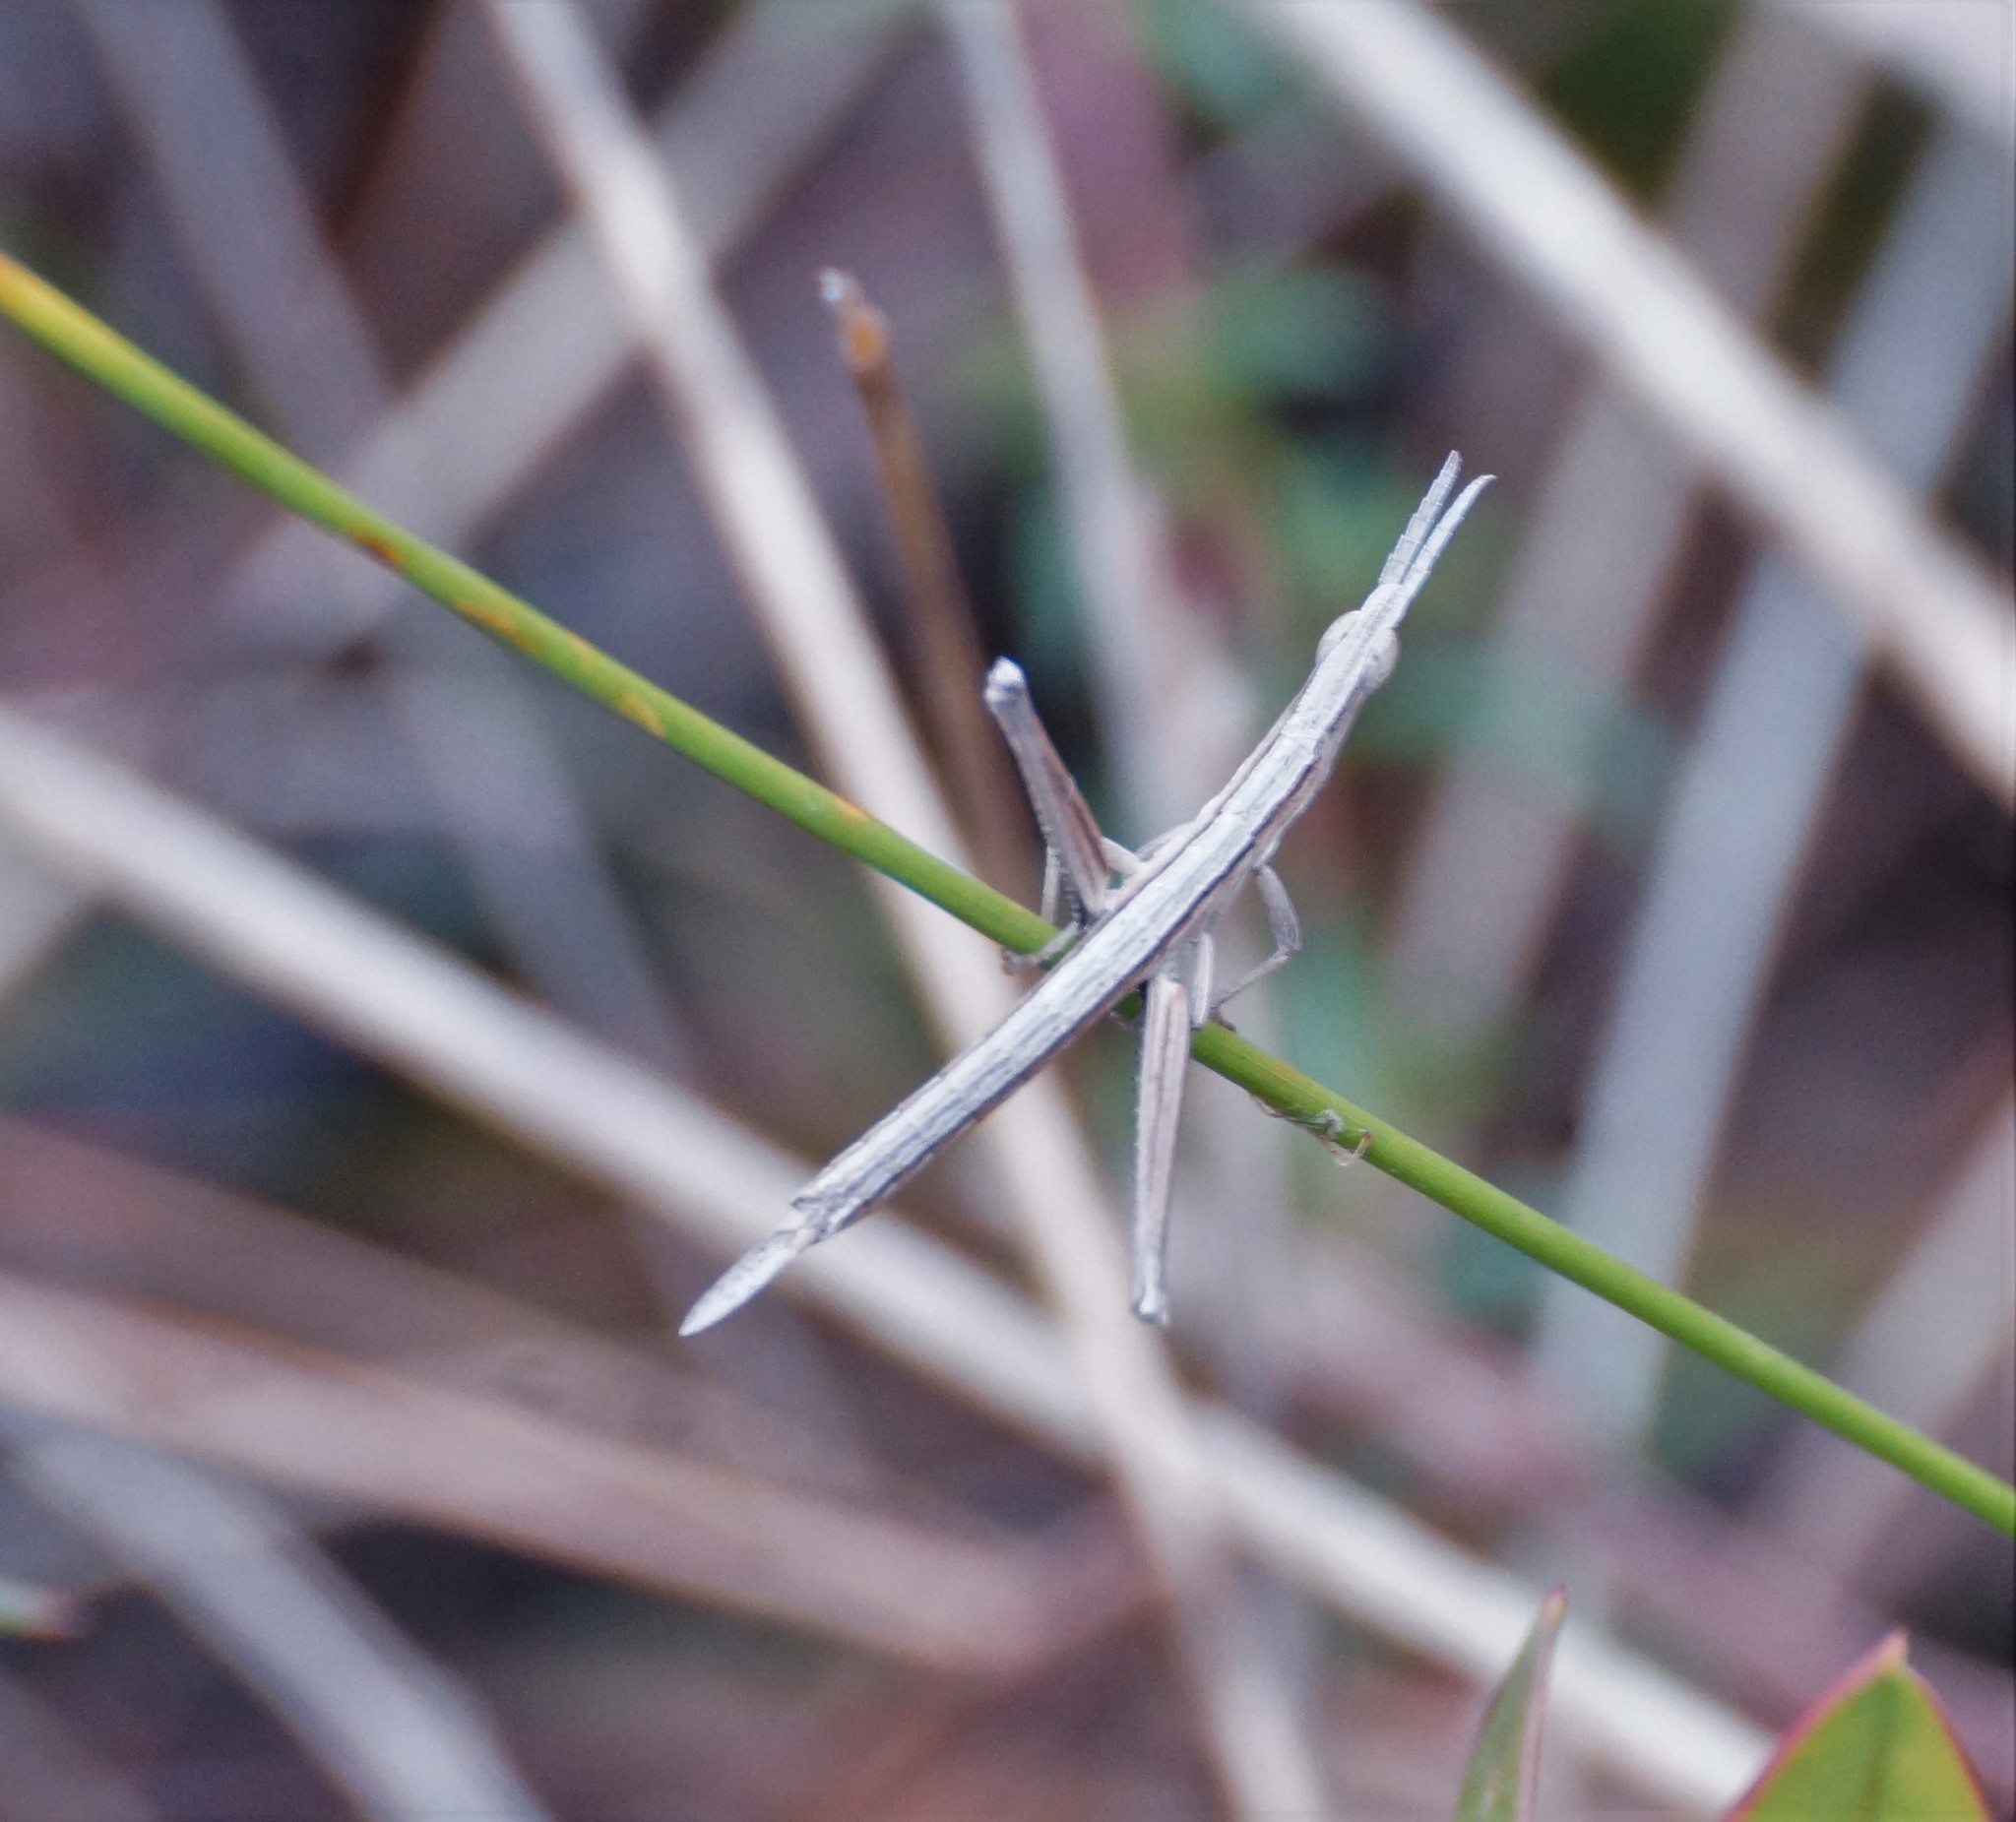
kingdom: Animalia
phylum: Arthropoda
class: Insecta
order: Orthoptera
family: Morabidae
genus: Vandiemenella
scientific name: Vandiemenella viatica
